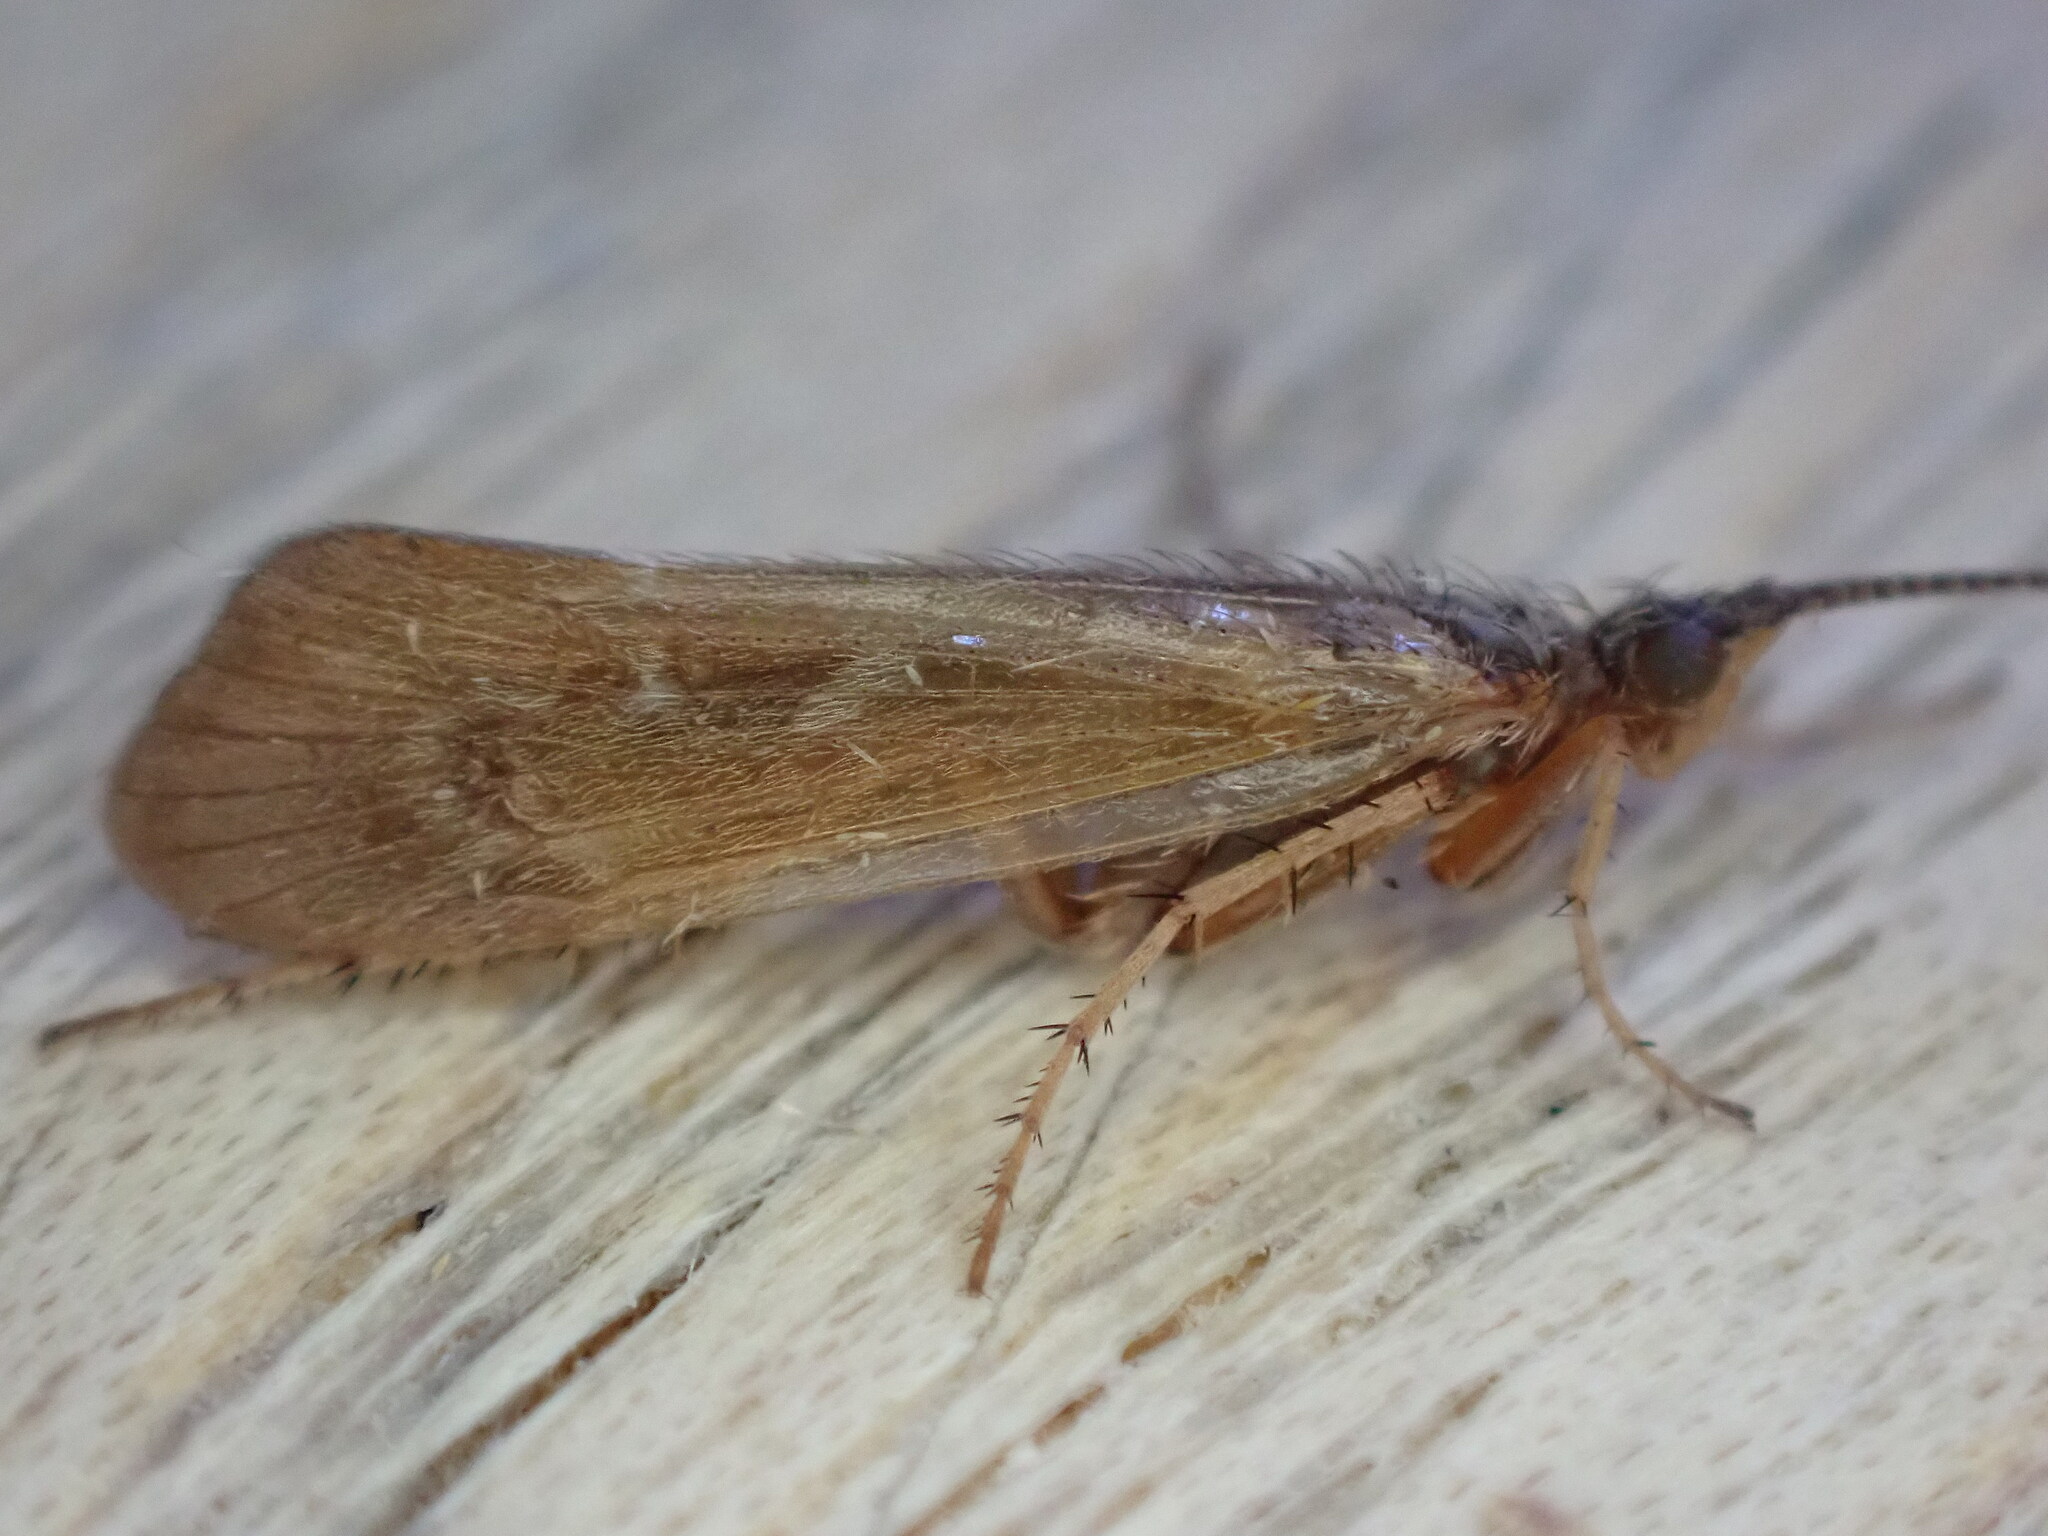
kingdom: Animalia
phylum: Arthropoda
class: Insecta
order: Trichoptera
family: Limnephilidae
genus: Limnephilus
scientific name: Limnephilus auricula
